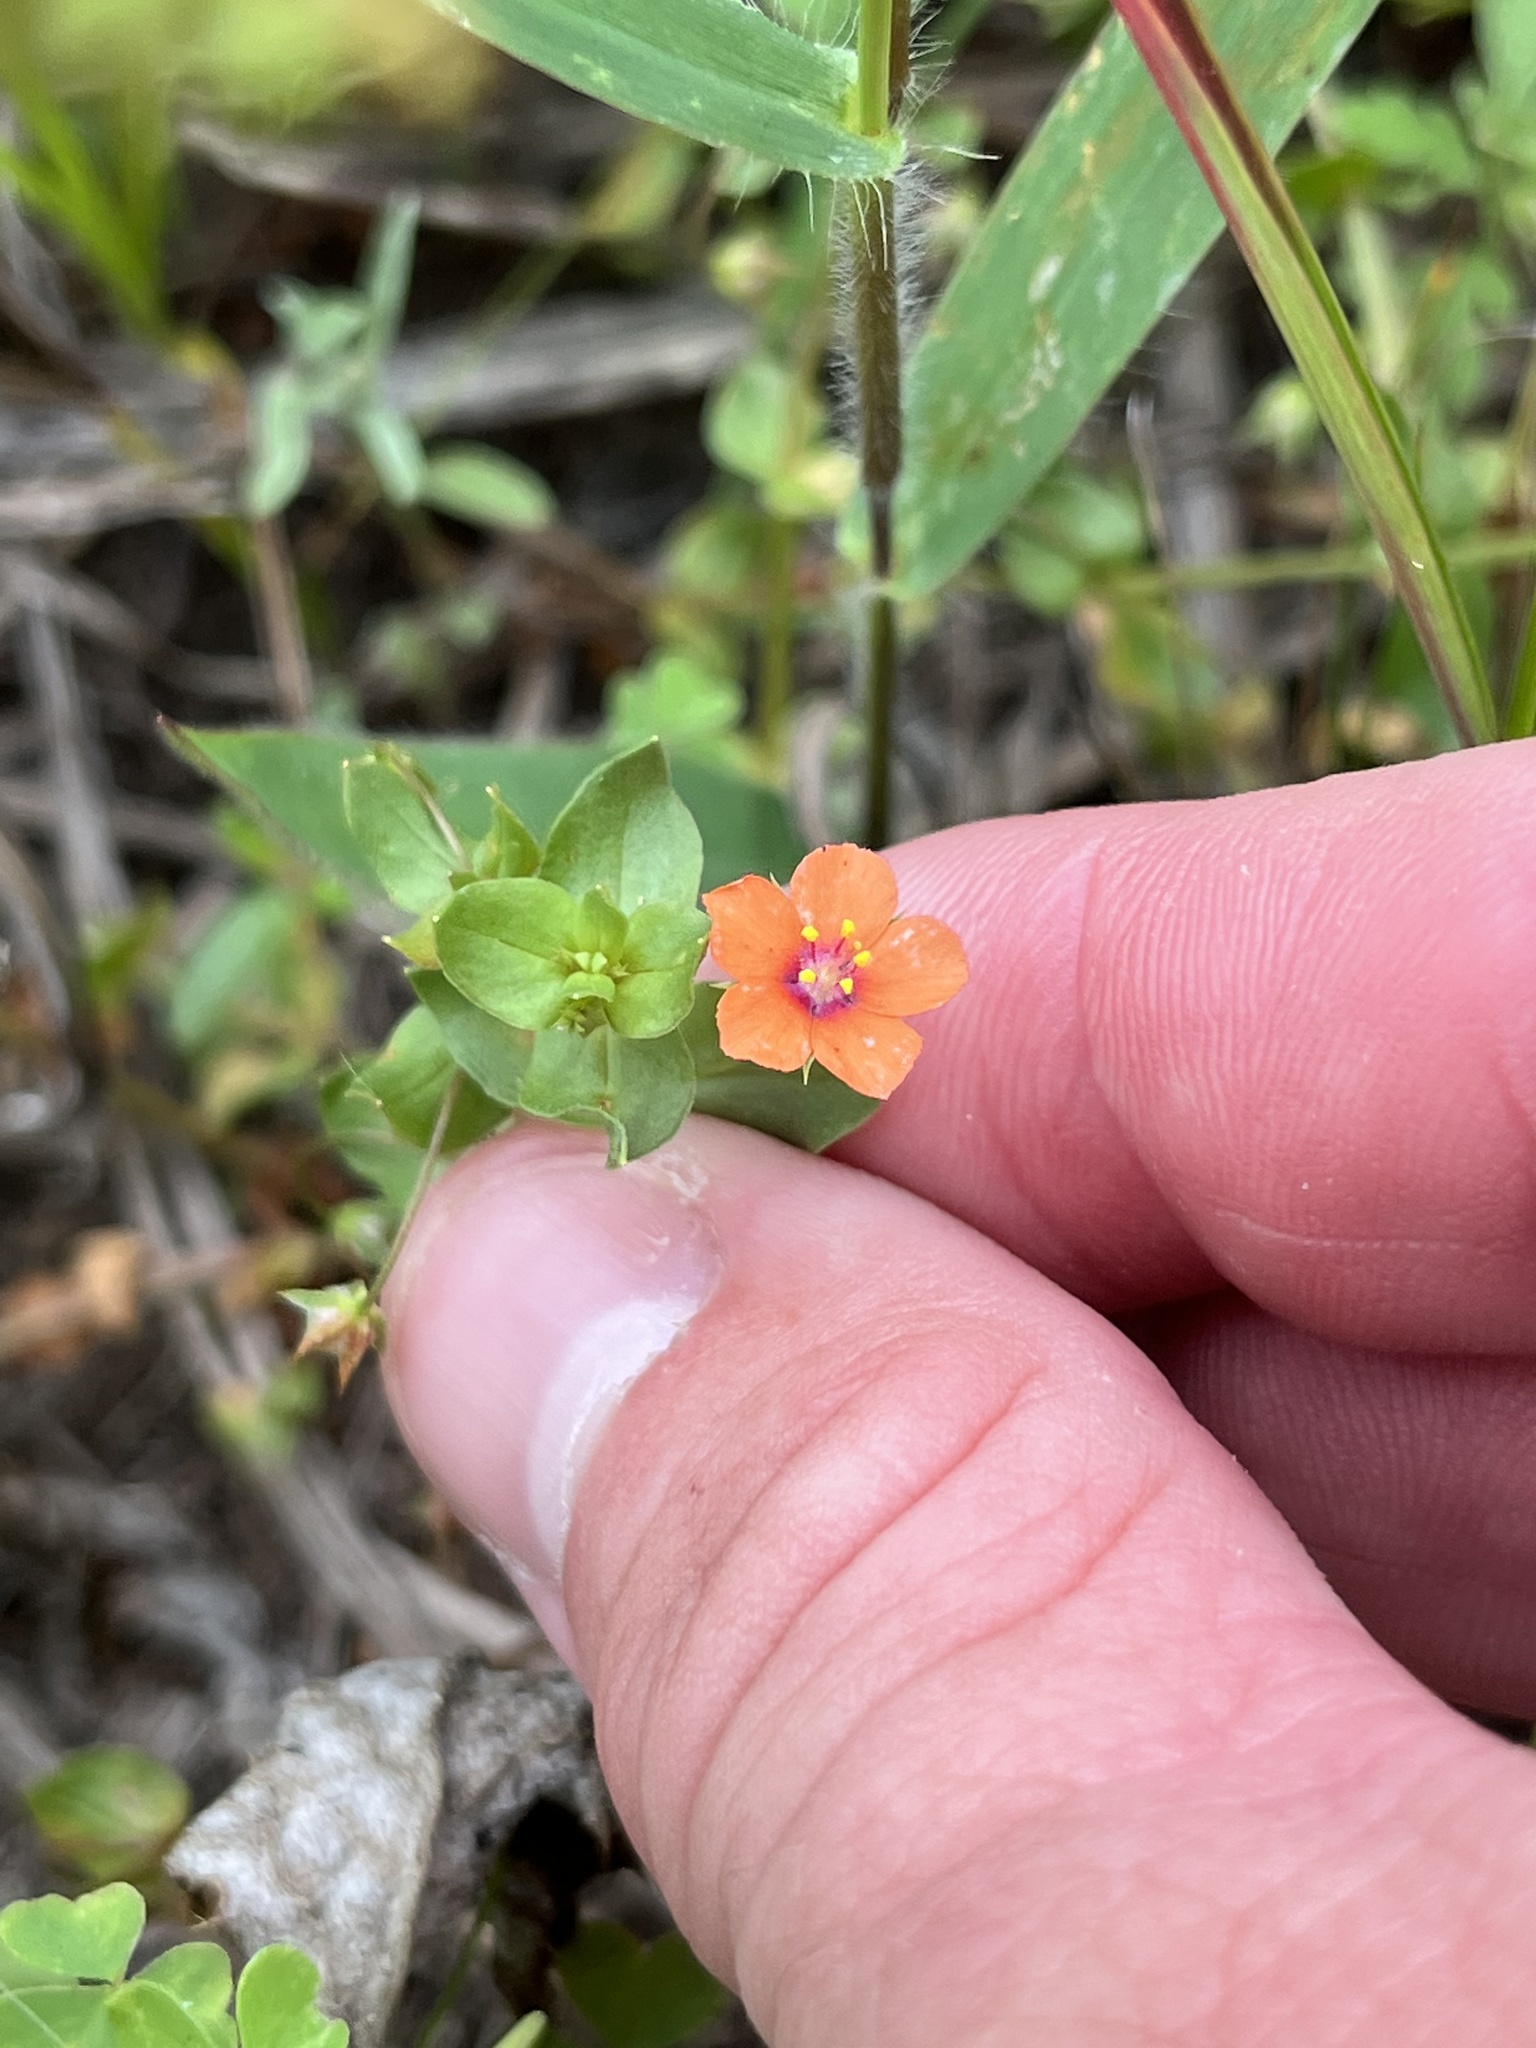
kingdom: Plantae
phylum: Tracheophyta
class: Magnoliopsida
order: Ericales
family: Primulaceae
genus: Lysimachia
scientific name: Lysimachia arvensis
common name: Scarlet pimpernel
